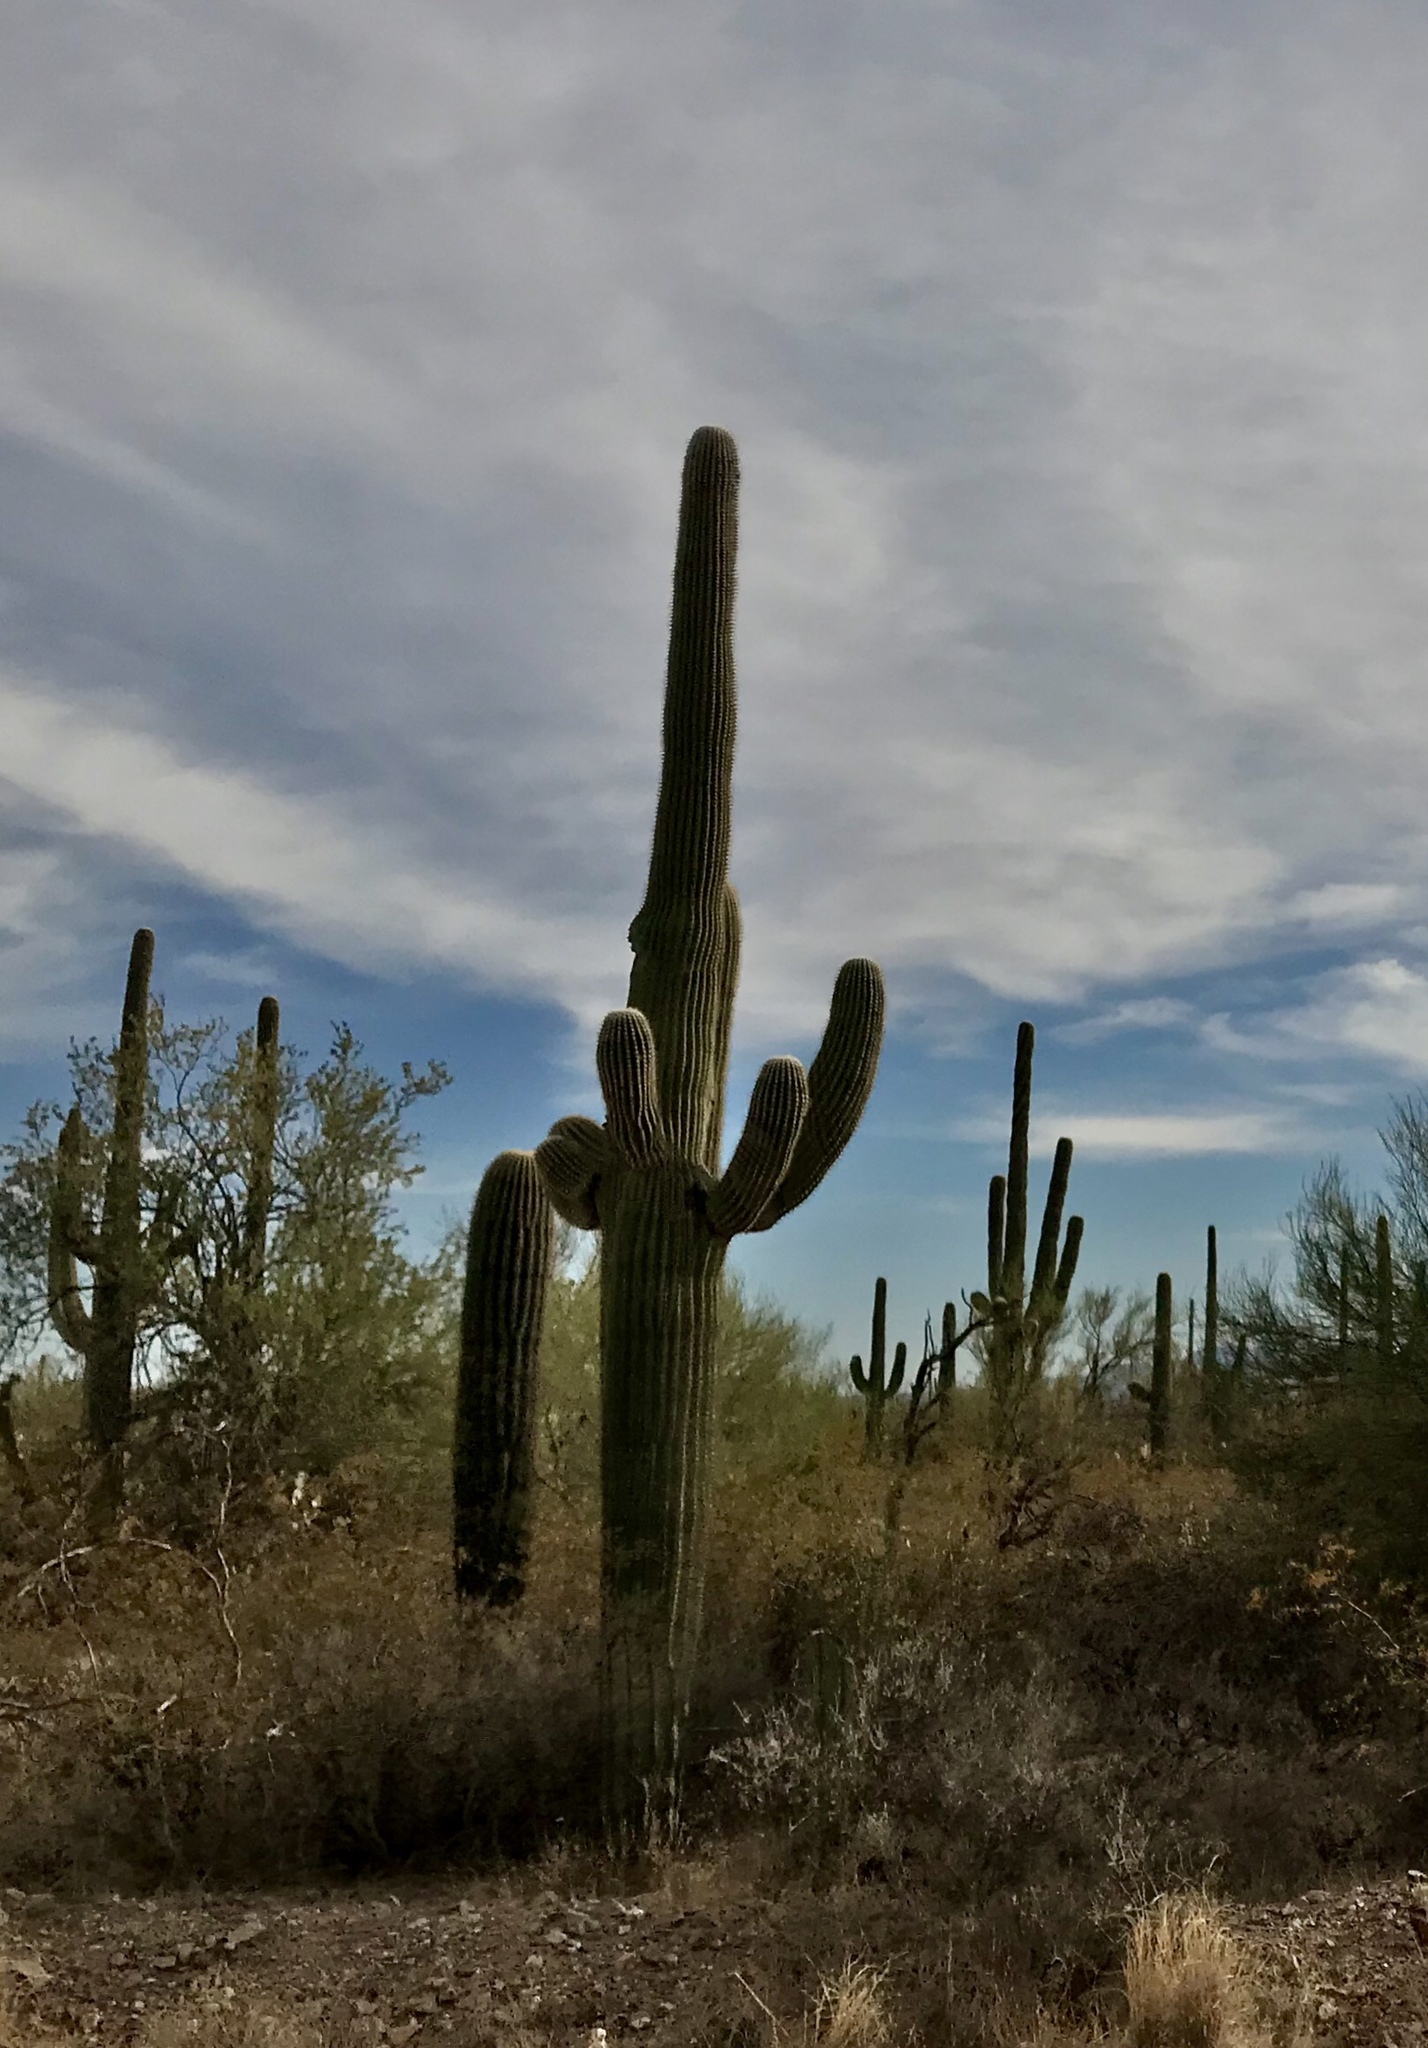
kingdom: Plantae
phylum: Tracheophyta
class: Magnoliopsida
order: Caryophyllales
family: Cactaceae
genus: Carnegiea
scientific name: Carnegiea gigantea
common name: Saguaro
